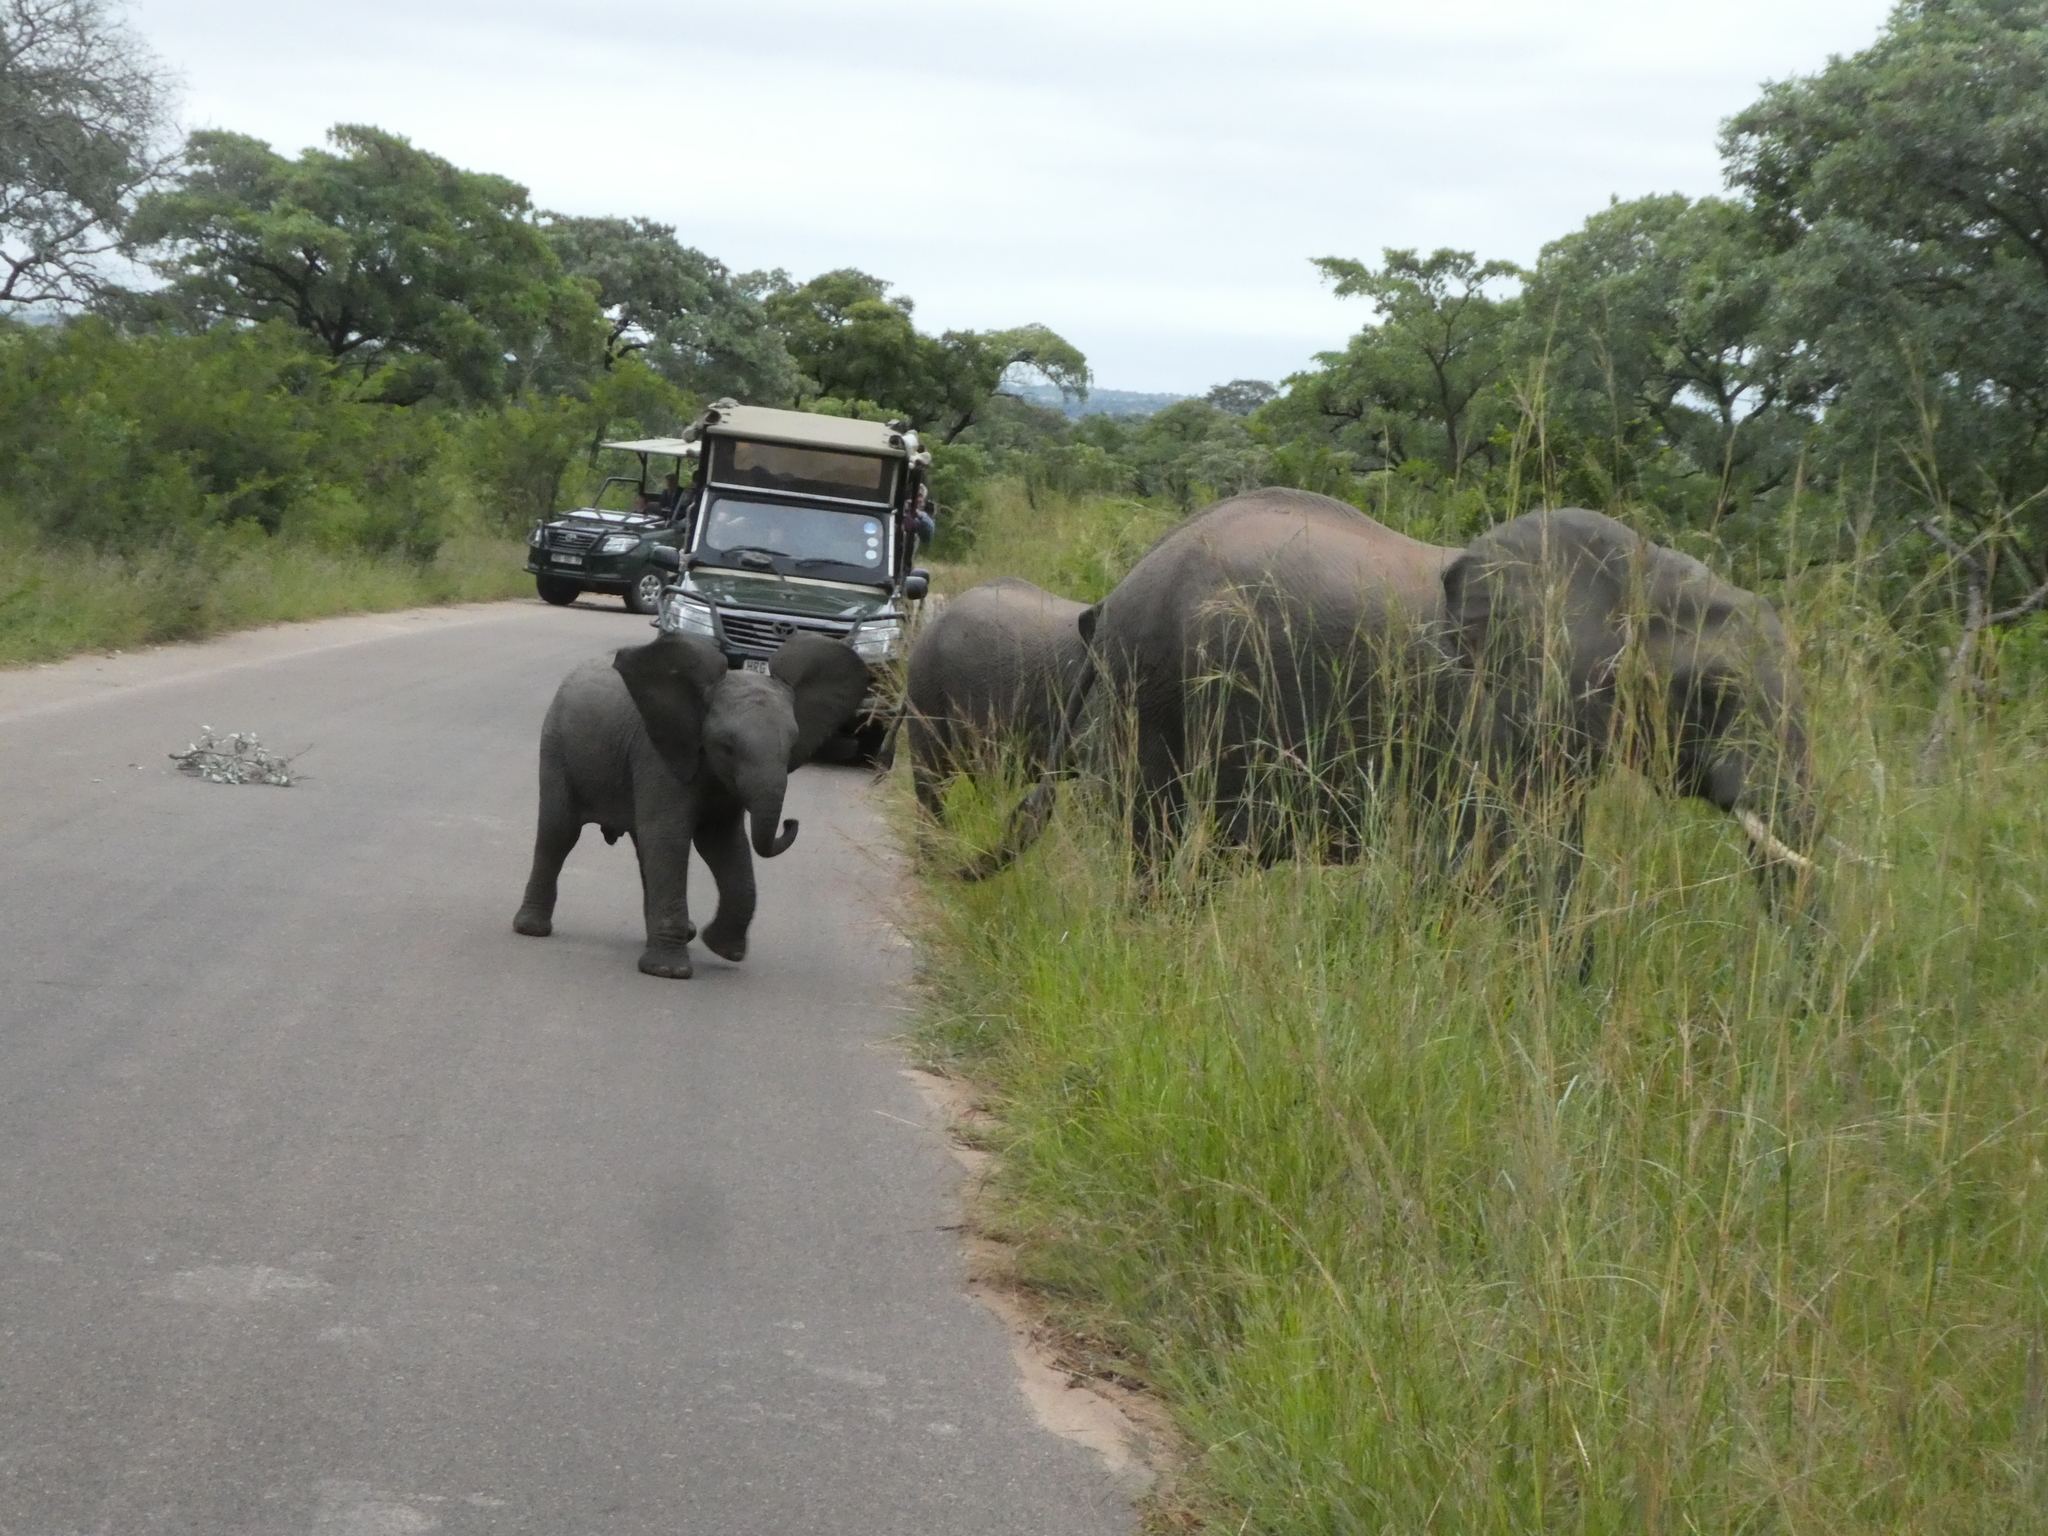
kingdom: Animalia
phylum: Chordata
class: Mammalia
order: Proboscidea
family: Elephantidae
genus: Loxodonta
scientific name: Loxodonta africana
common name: African elephant
